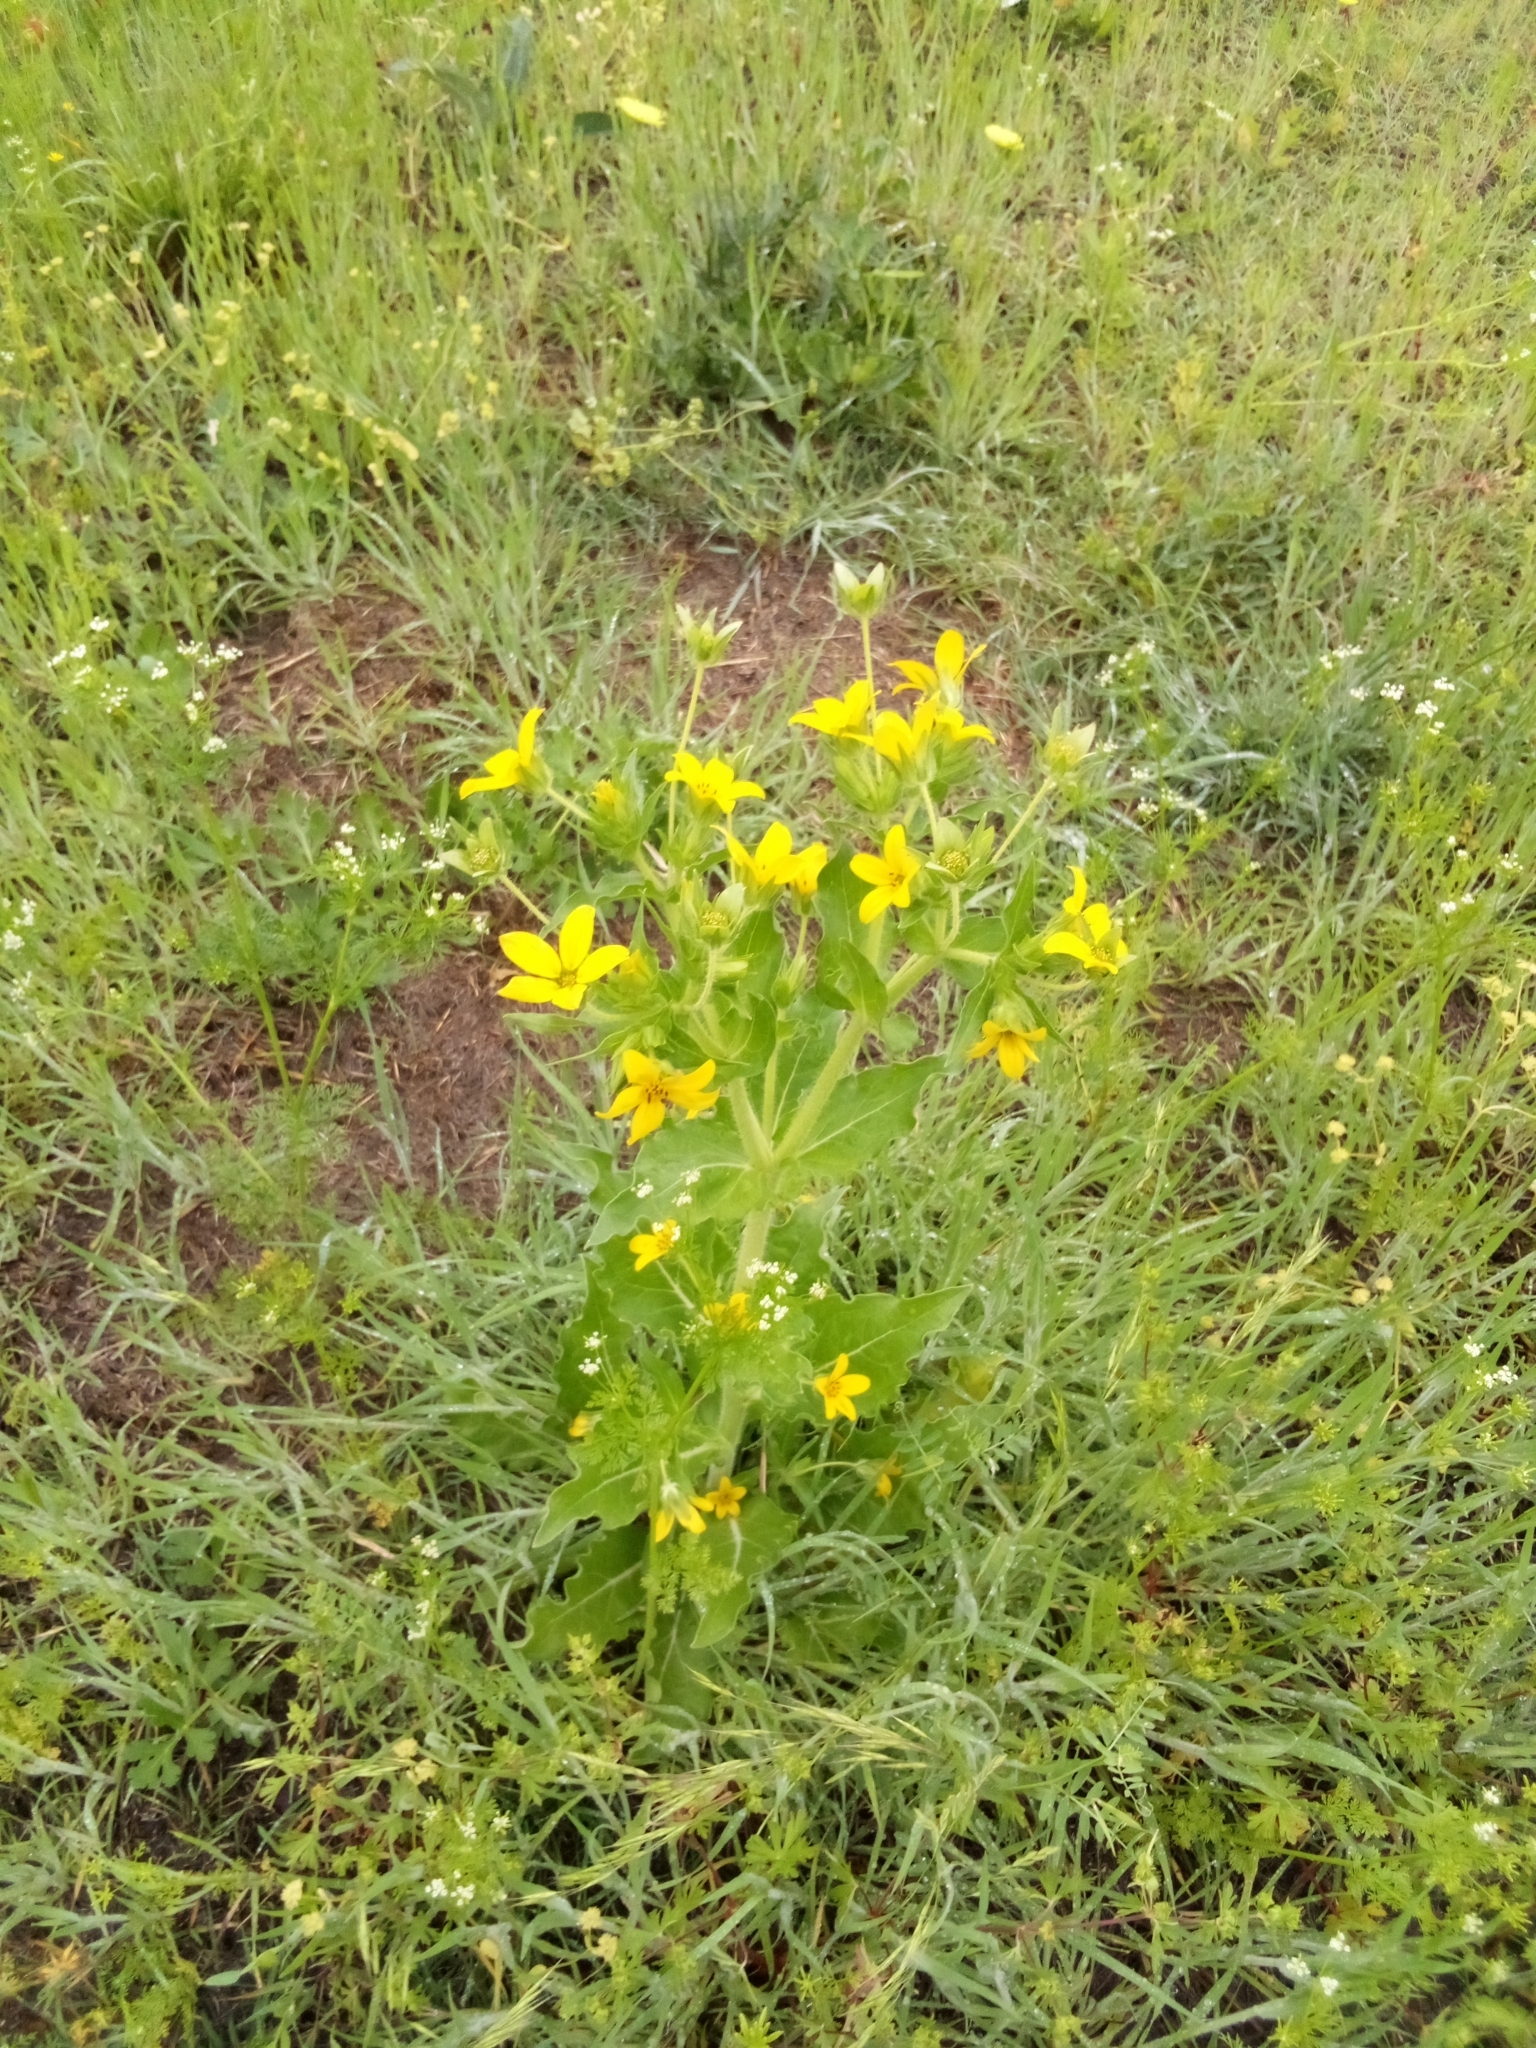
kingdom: Plantae
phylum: Tracheophyta
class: Magnoliopsida
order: Asterales
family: Asteraceae
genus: Lindheimera
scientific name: Lindheimera texana
